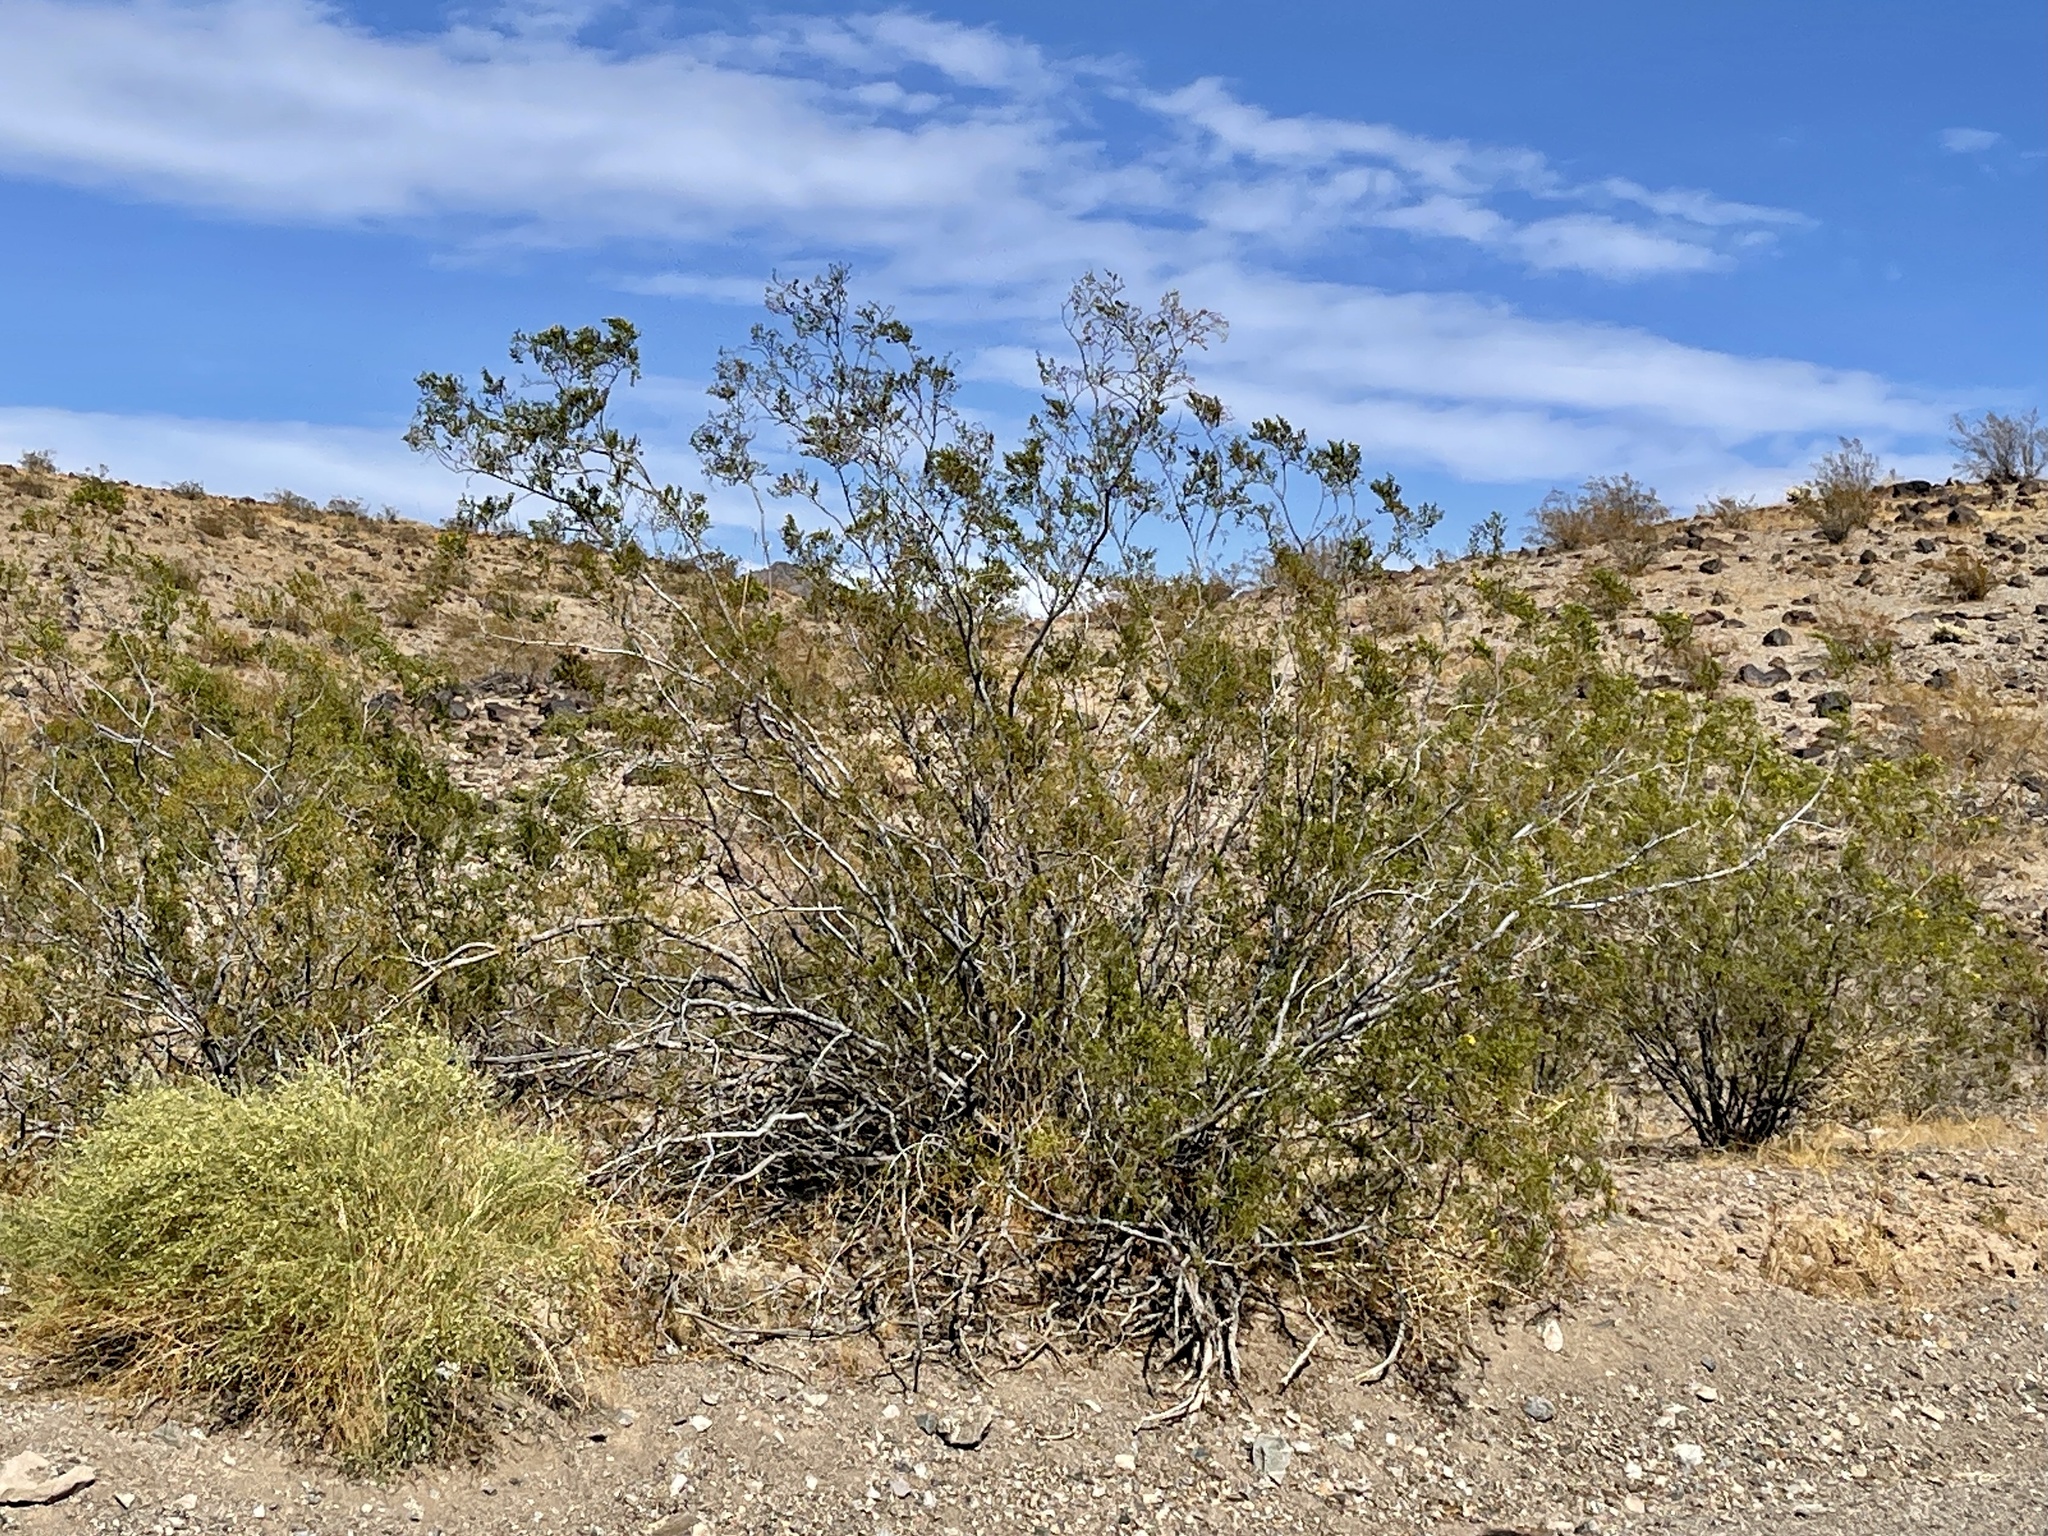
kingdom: Plantae
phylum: Tracheophyta
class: Magnoliopsida
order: Zygophyllales
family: Zygophyllaceae
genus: Larrea
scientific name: Larrea tridentata
